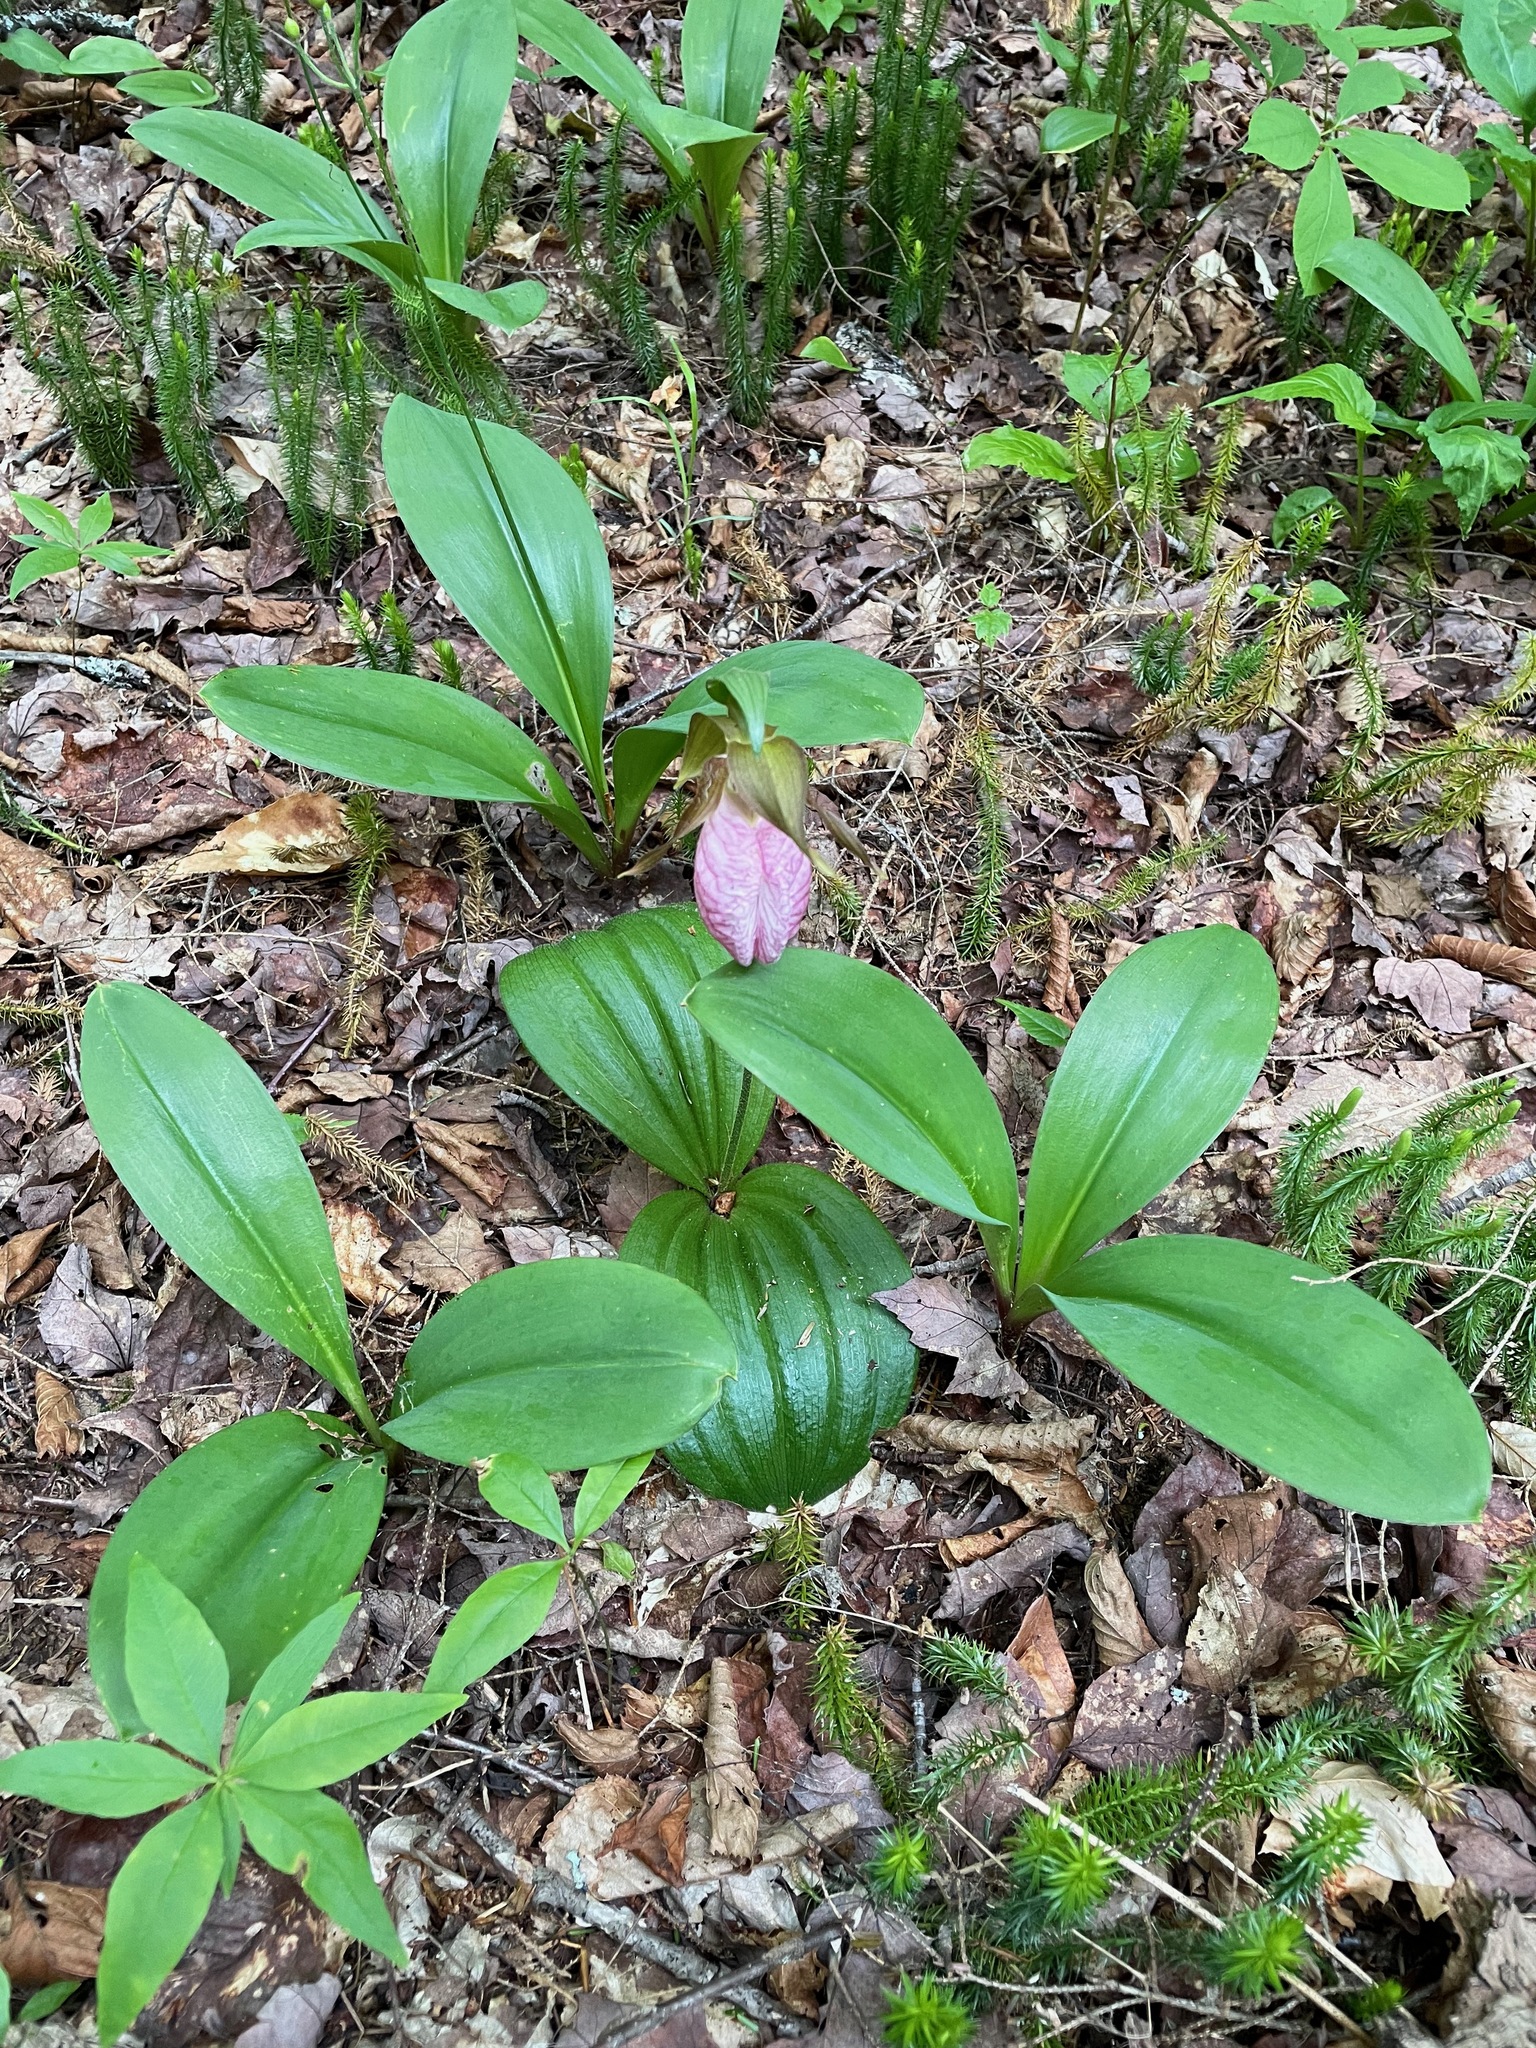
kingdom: Plantae
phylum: Tracheophyta
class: Liliopsida
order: Asparagales
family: Orchidaceae
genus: Cypripedium
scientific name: Cypripedium acaule
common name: Pink lady's-slipper
